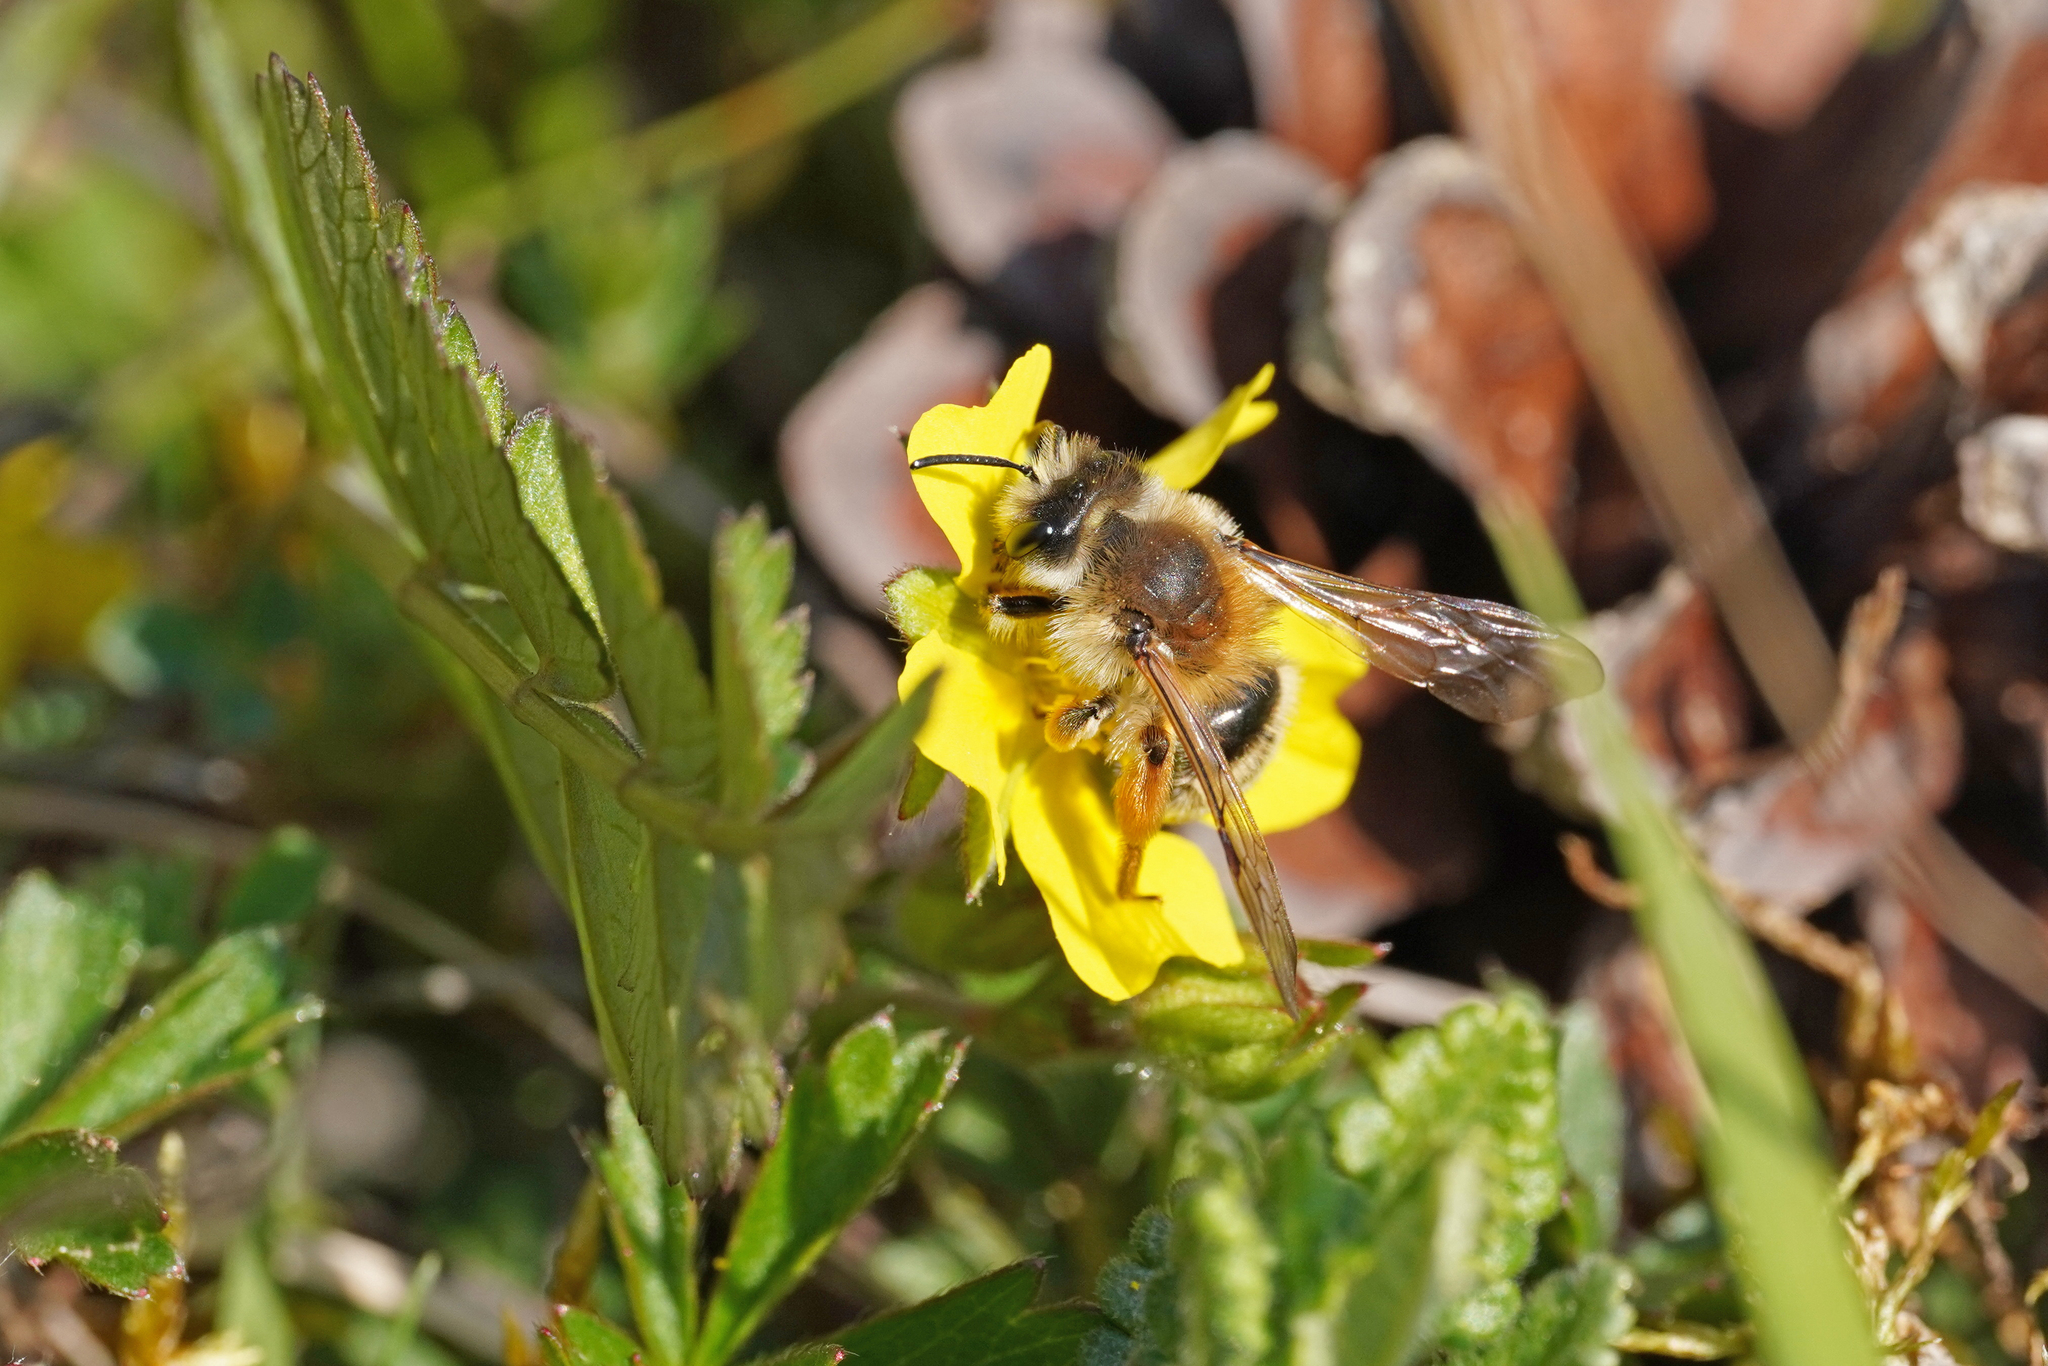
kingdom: Animalia
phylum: Arthropoda
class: Insecta
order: Hymenoptera
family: Andrenidae
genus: Andrena
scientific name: Andrena gravida
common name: White-bellied mining bee
